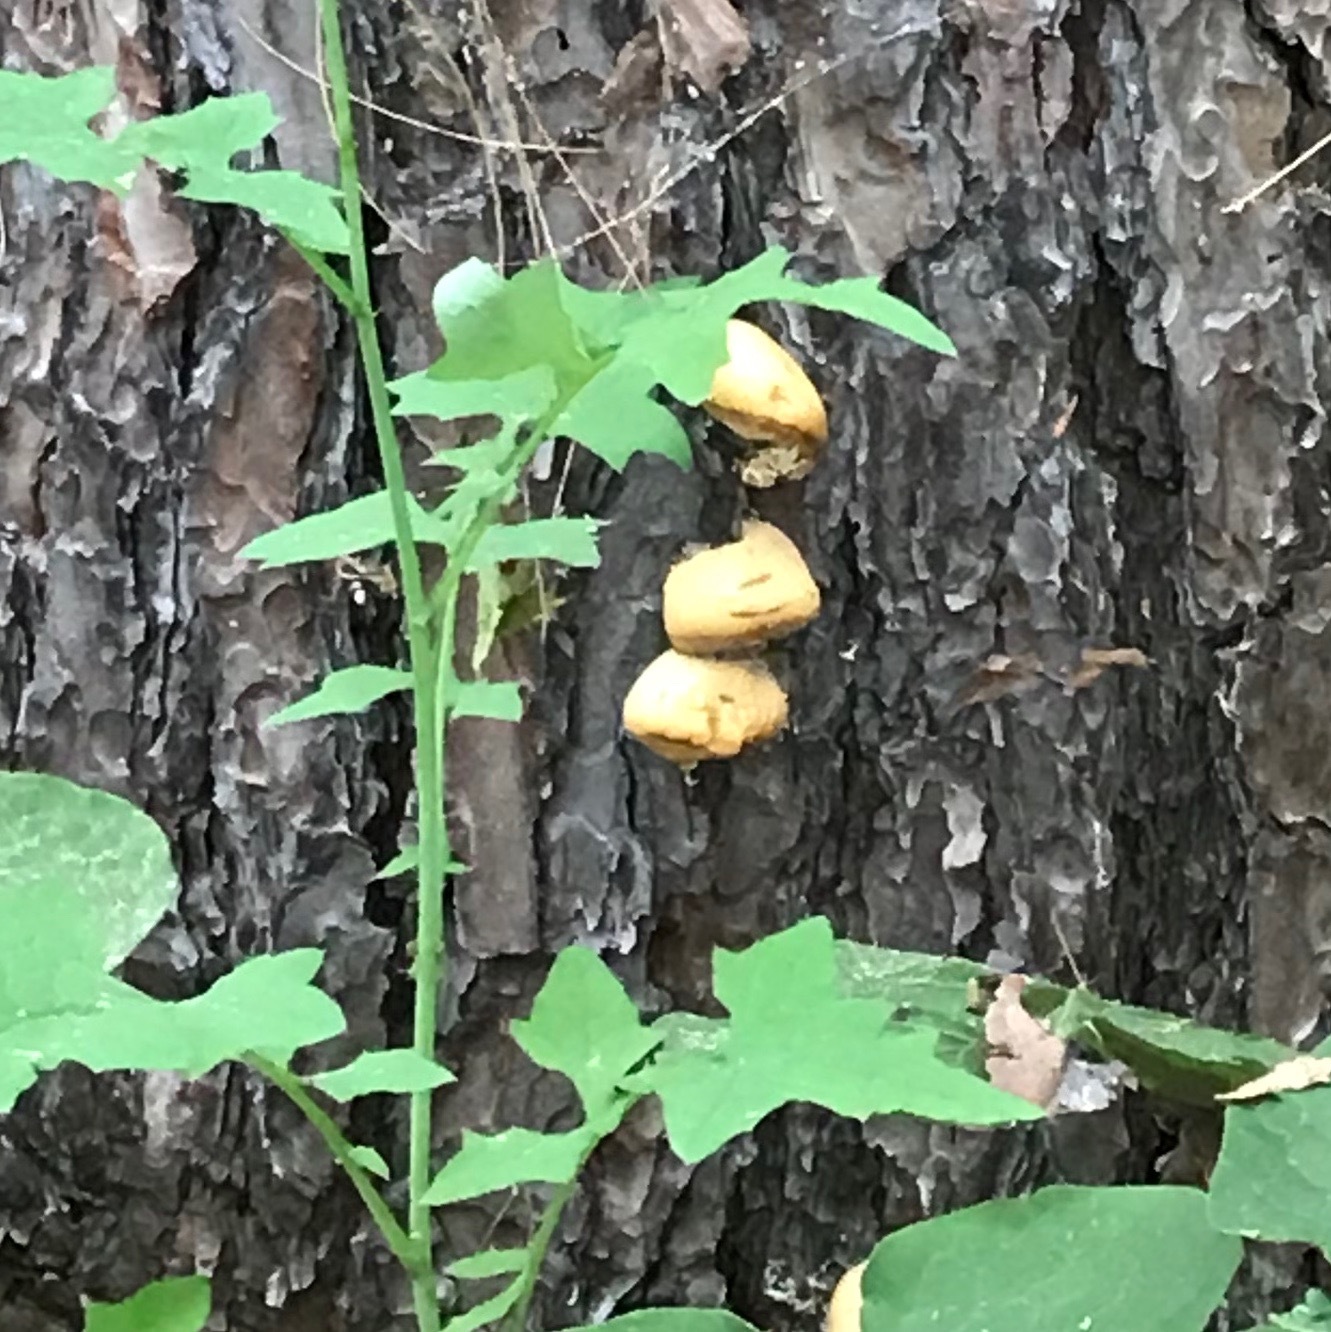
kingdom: Fungi
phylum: Basidiomycota
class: Agaricomycetes
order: Polyporales
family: Polyporaceae
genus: Cryptoporus
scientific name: Cryptoporus volvatus
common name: Veiled polypore
